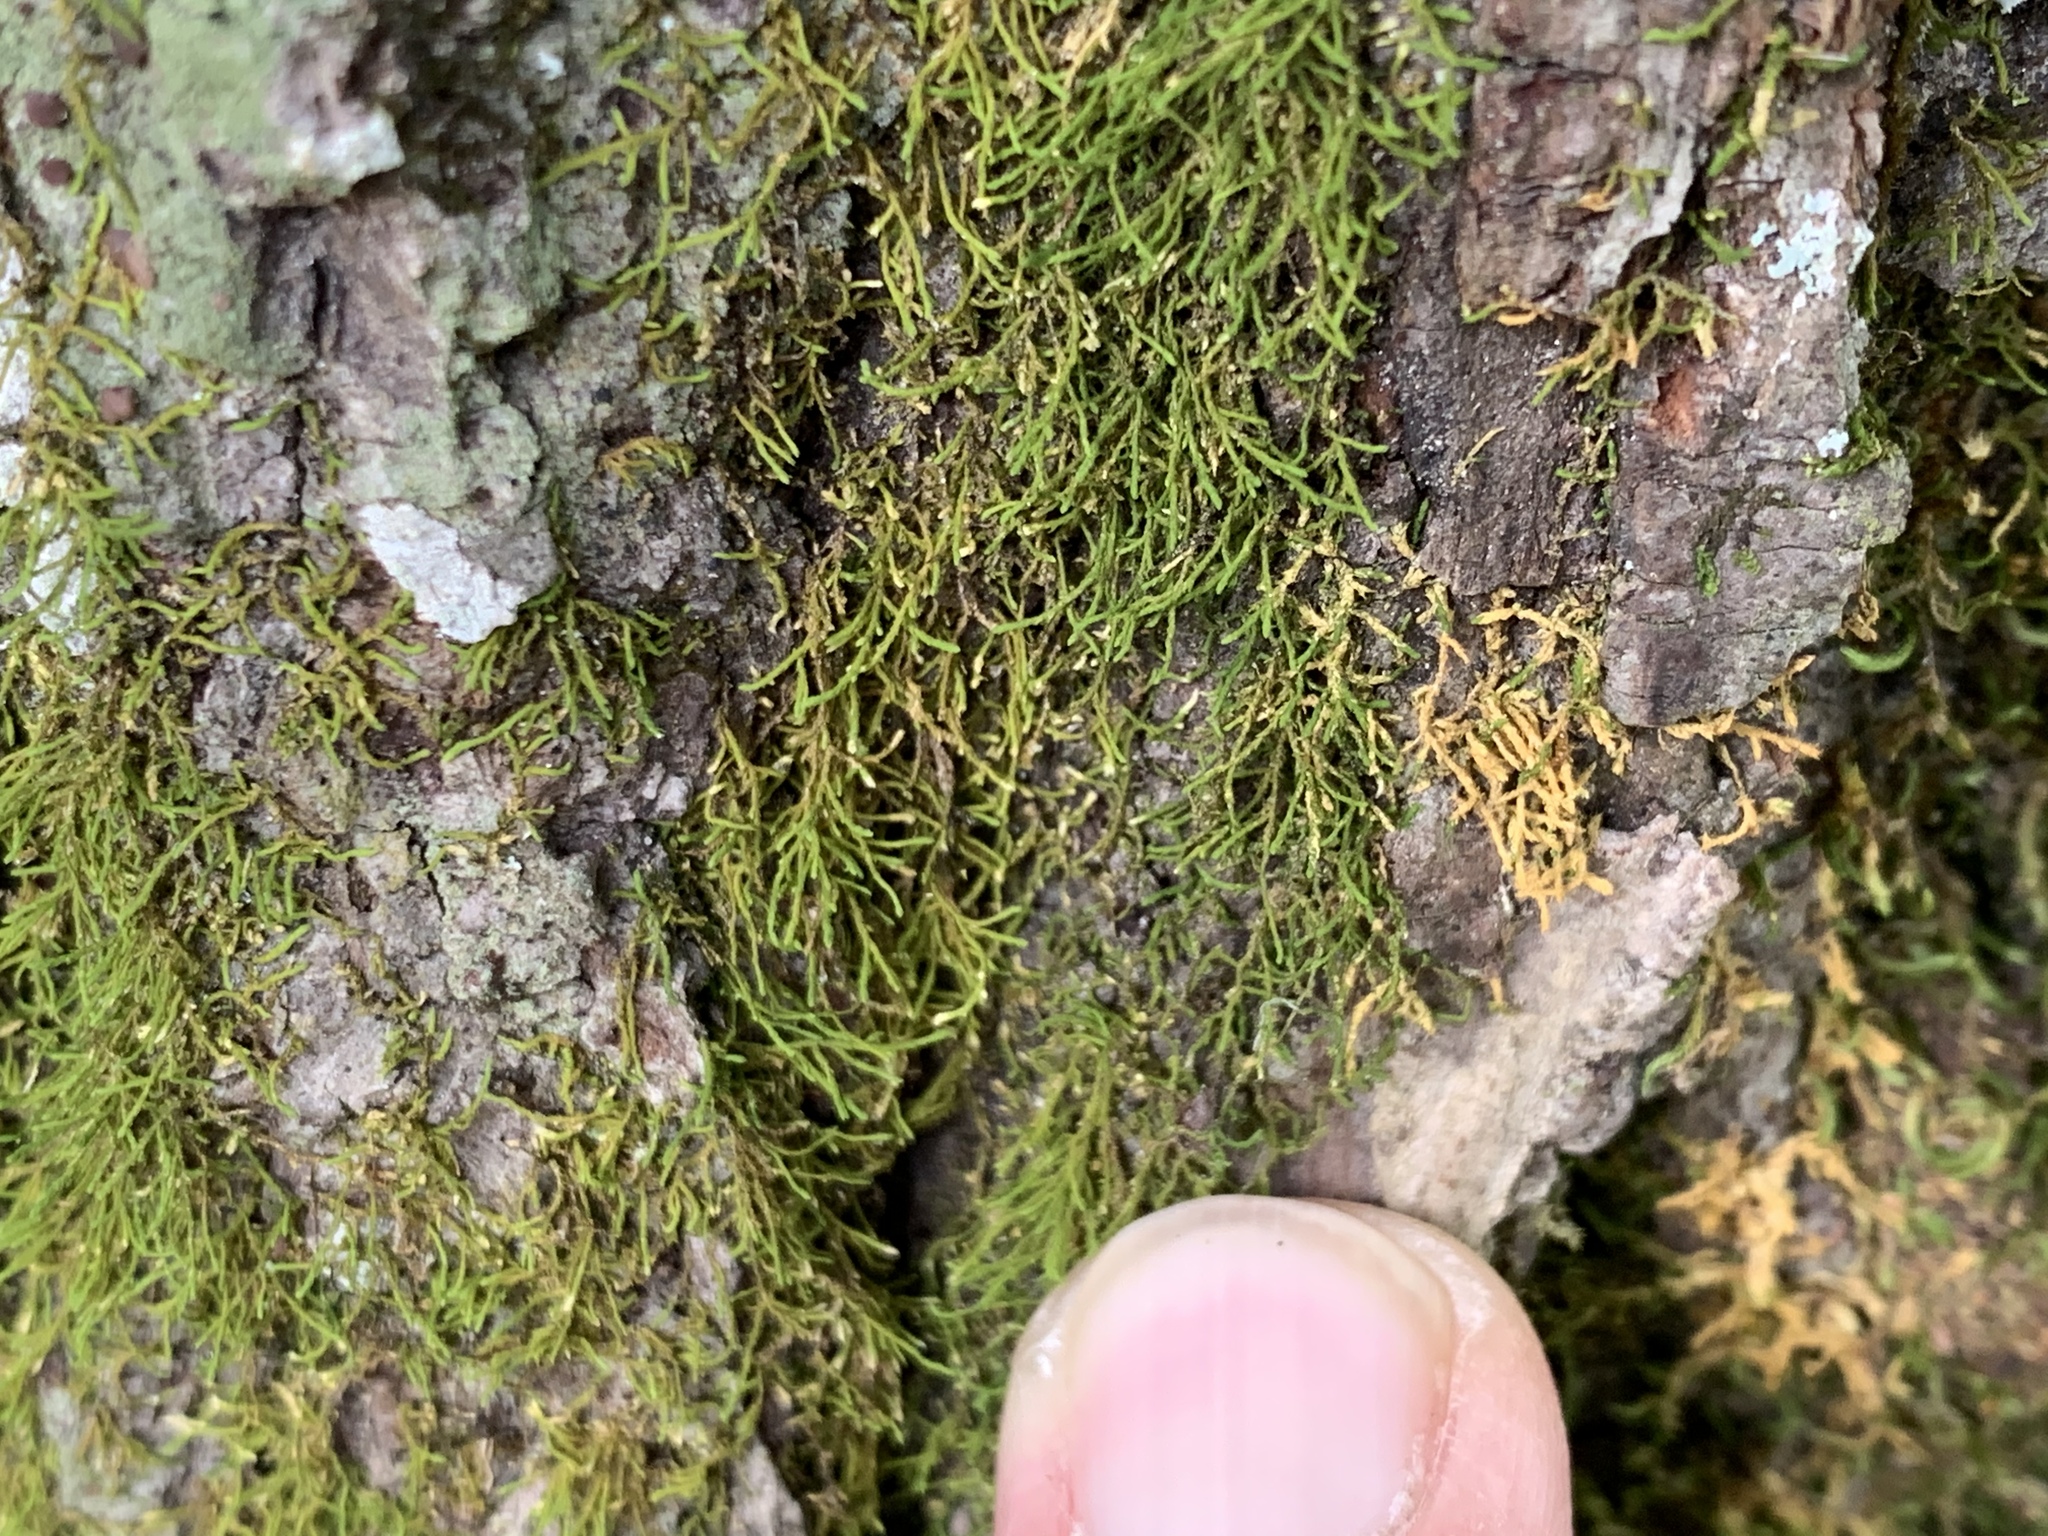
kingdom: Plantae
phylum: Bryophyta
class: Bryopsida
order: Hypnales
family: Anomodontaceae
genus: Haplohymenium
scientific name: Haplohymenium triste
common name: Fragile anomodon
